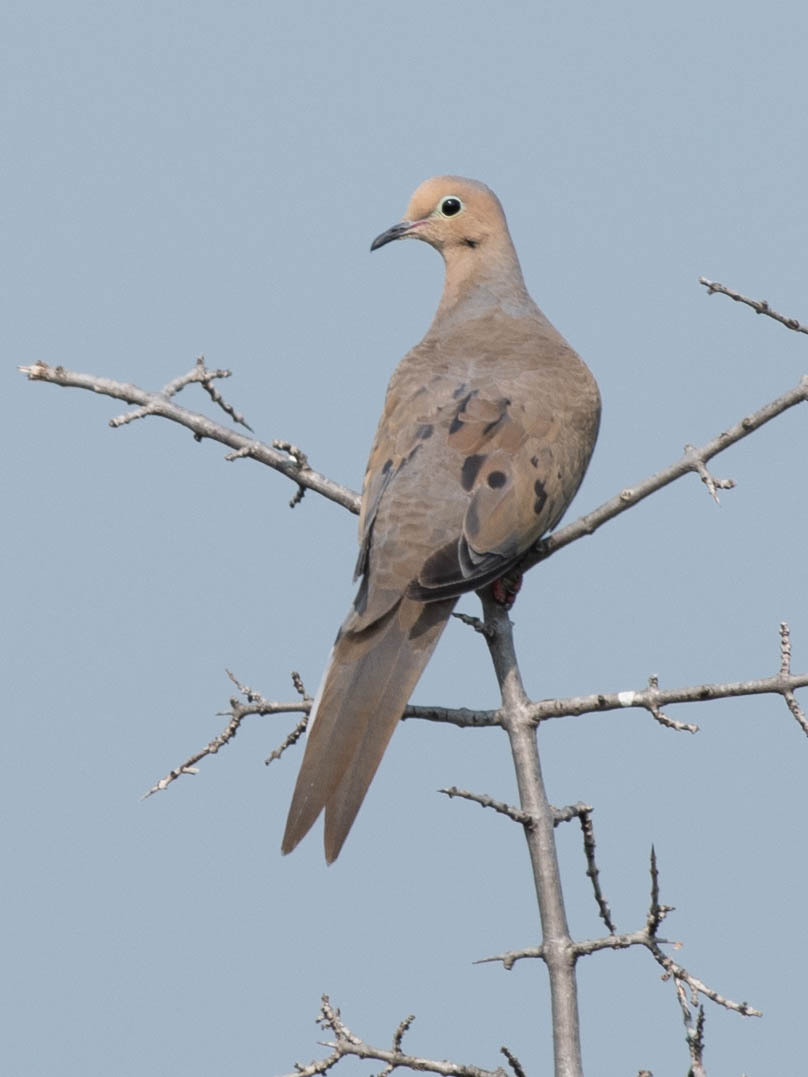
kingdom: Animalia
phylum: Chordata
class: Aves
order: Columbiformes
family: Columbidae
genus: Zenaida
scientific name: Zenaida macroura
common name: Mourning dove
